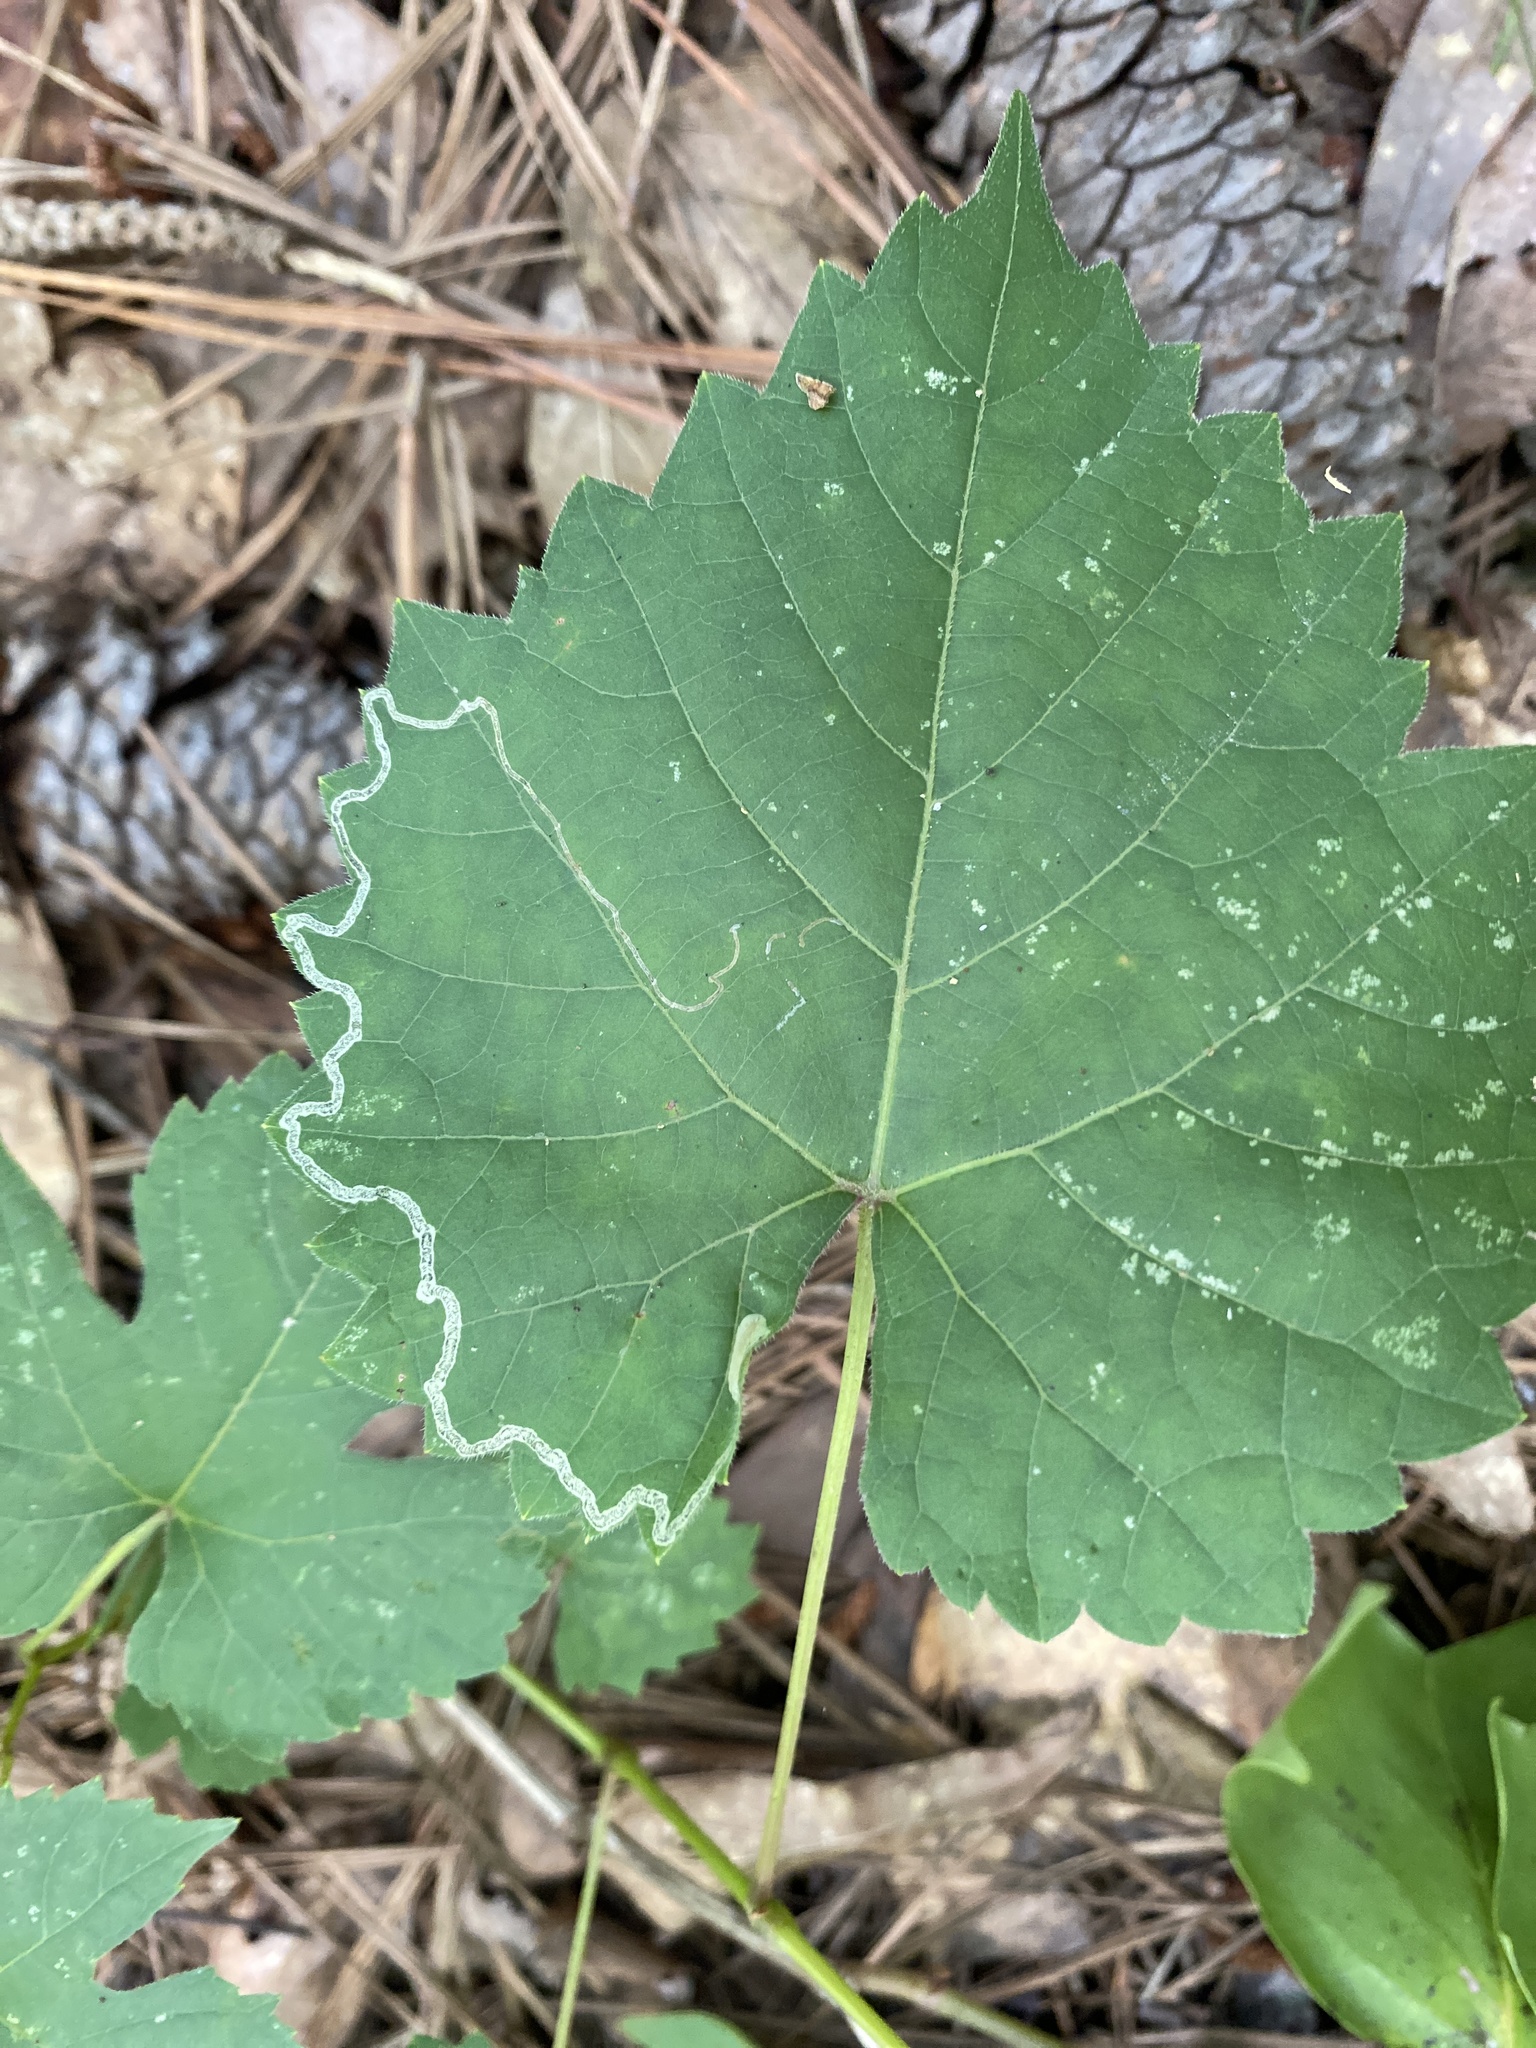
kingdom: Animalia
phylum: Arthropoda
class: Insecta
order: Lepidoptera
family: Gracillariidae
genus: Phyllocnistis
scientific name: Phyllocnistis vitifoliella
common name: Grape leaf-miner moth
